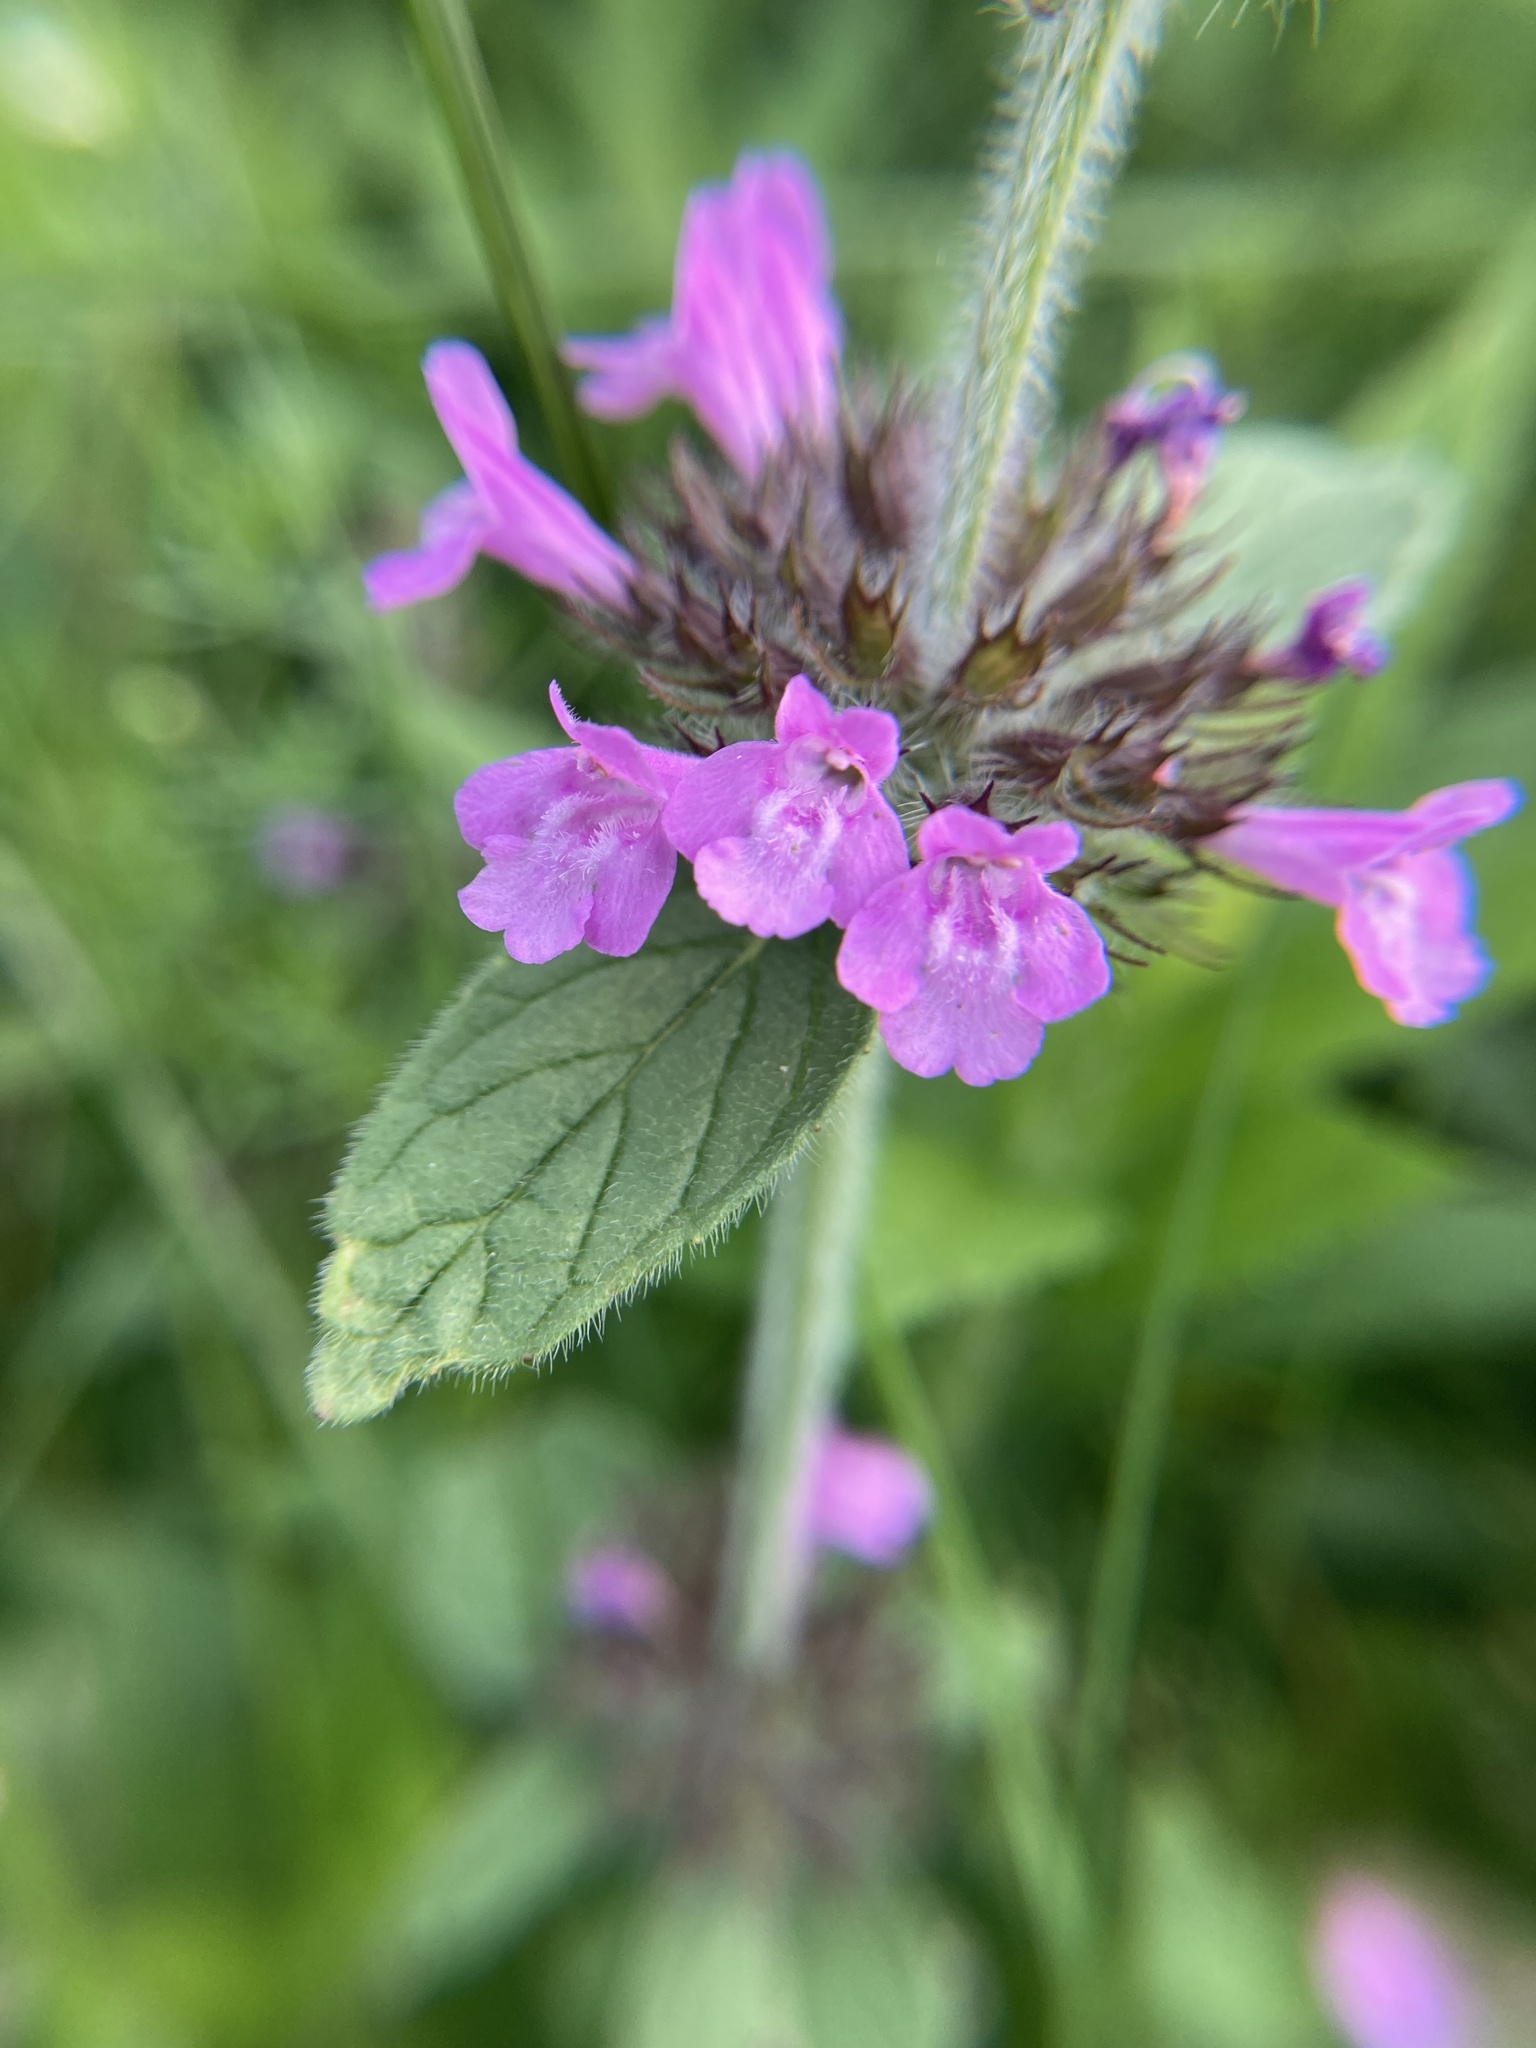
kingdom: Plantae
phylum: Tracheophyta
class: Magnoliopsida
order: Lamiales
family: Lamiaceae
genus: Clinopodium
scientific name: Clinopodium vulgare
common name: Wild basil
